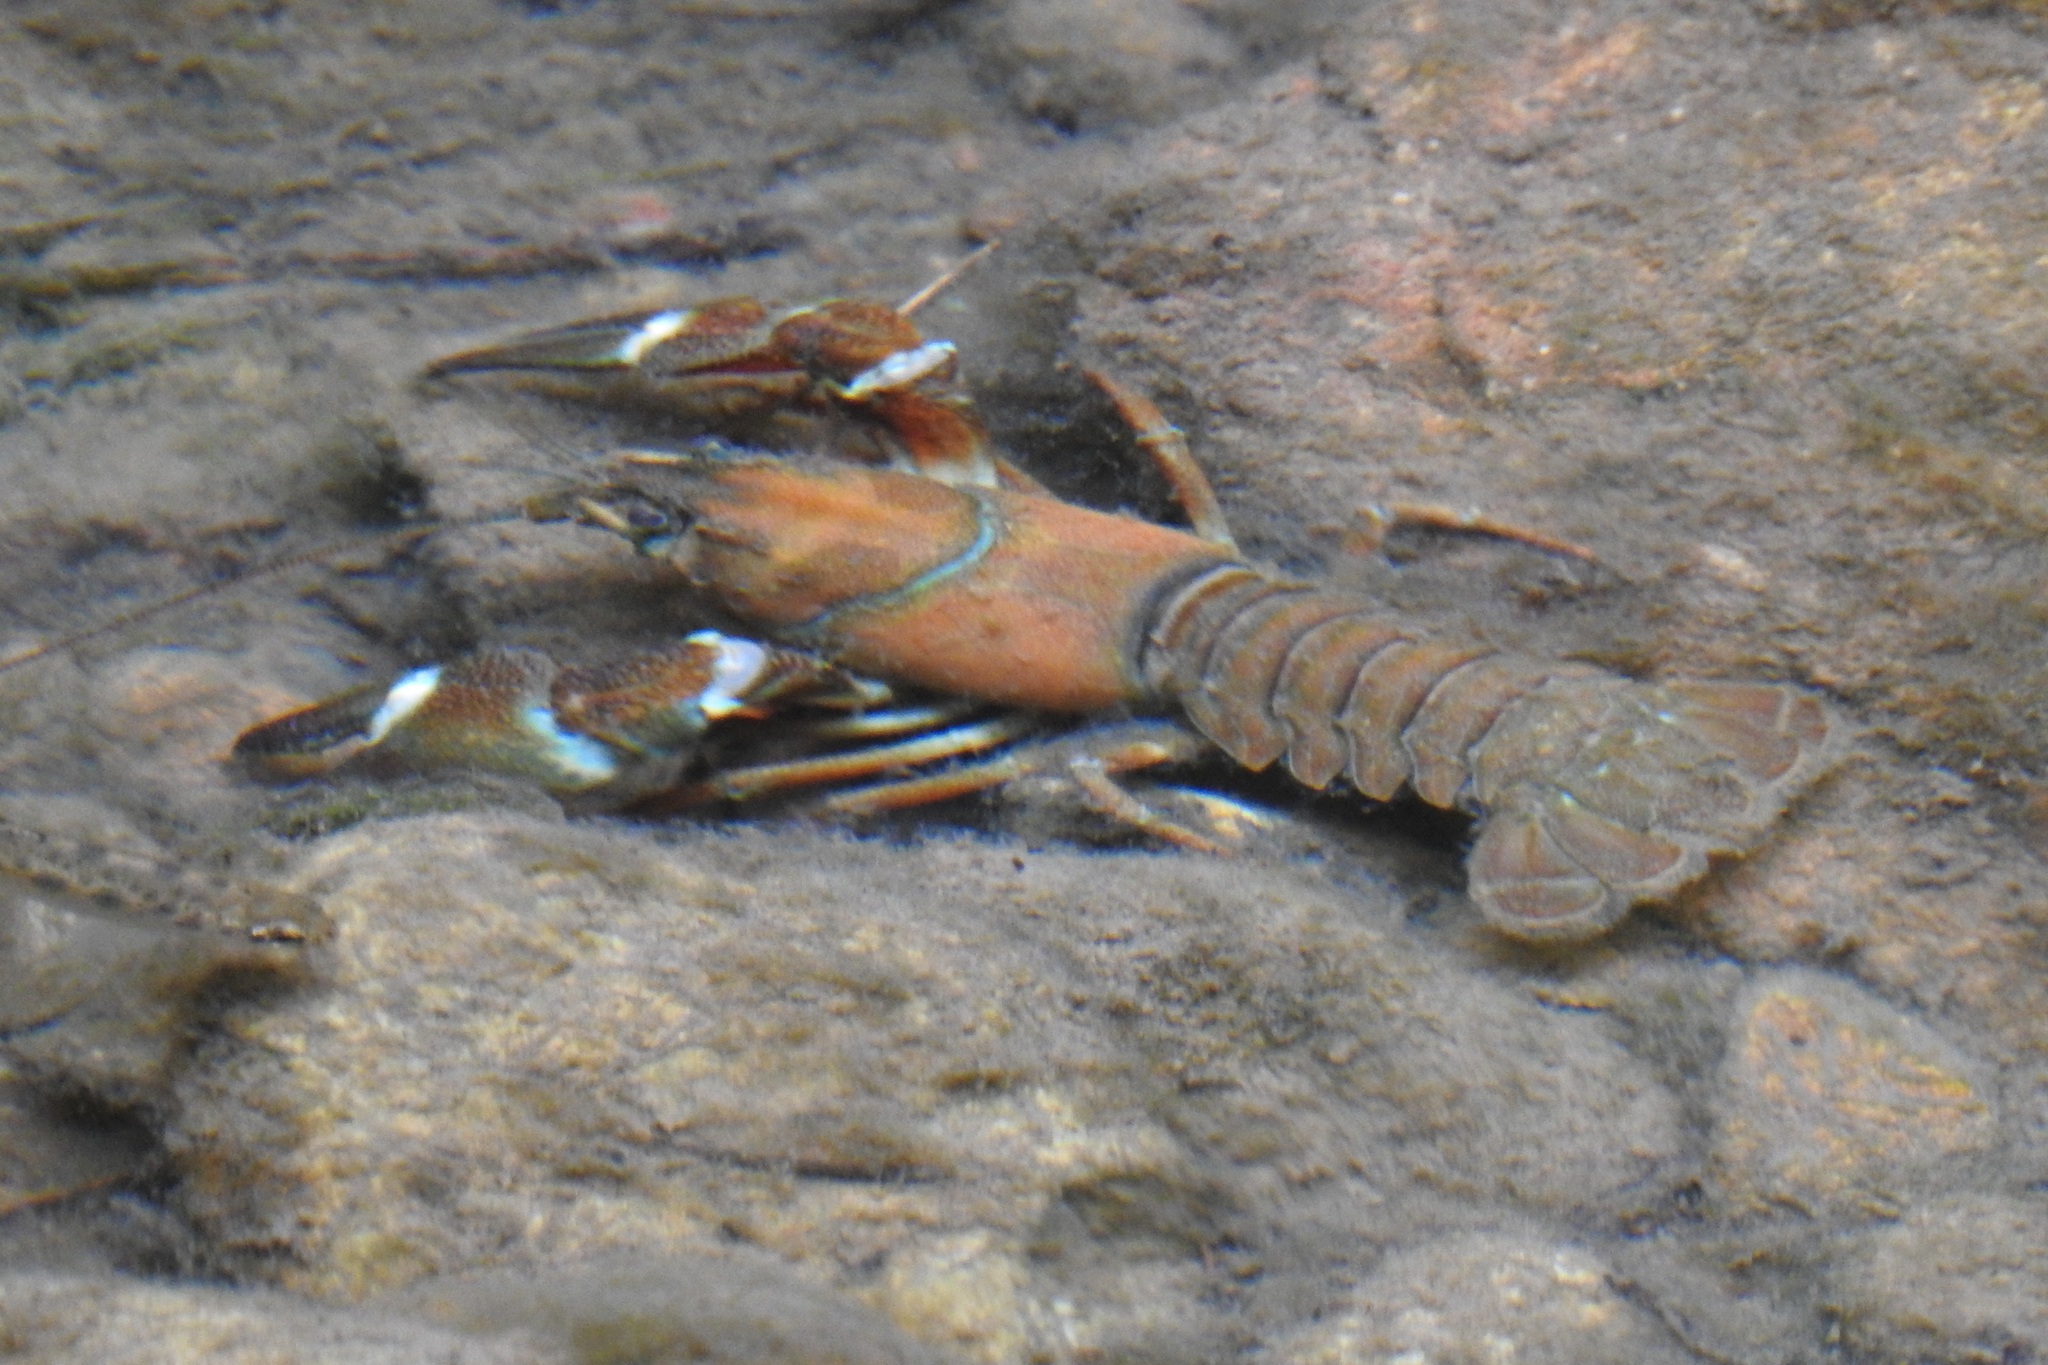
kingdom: Animalia
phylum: Arthropoda
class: Malacostraca
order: Decapoda
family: Astacidae
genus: Pacifastacus
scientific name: Pacifastacus leniusculus
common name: Signal crayfish
